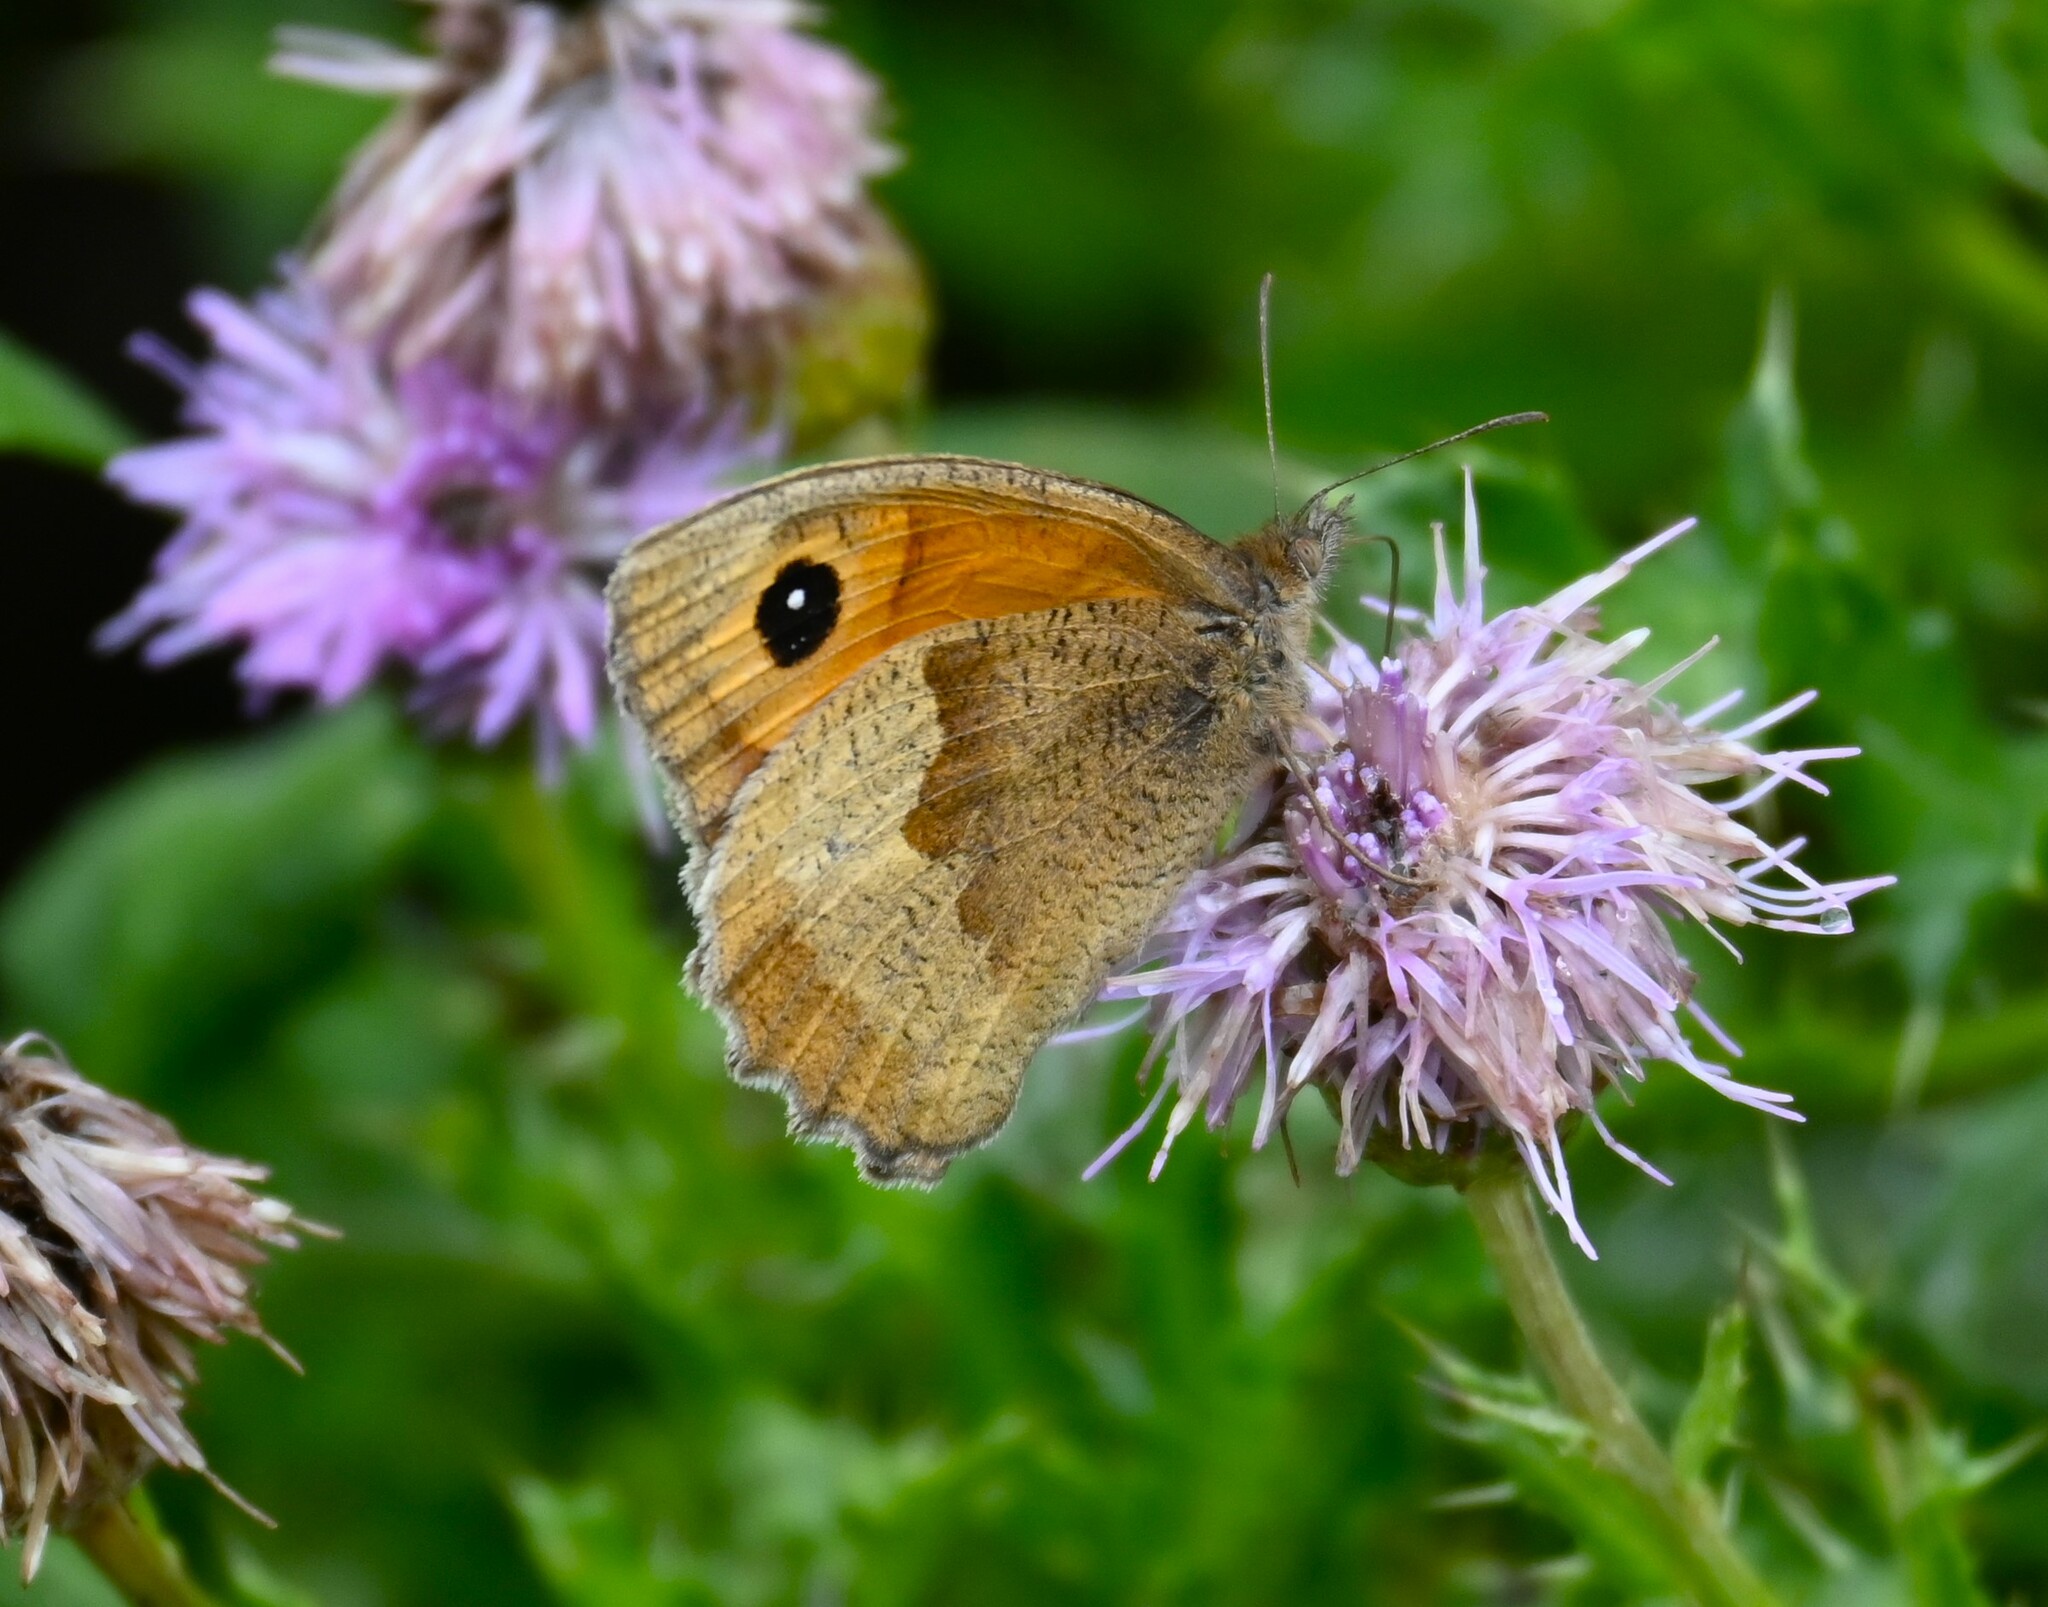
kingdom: Animalia
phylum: Arthropoda
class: Insecta
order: Lepidoptera
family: Nymphalidae
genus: Maniola
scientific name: Maniola jurtina
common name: Meadow brown
